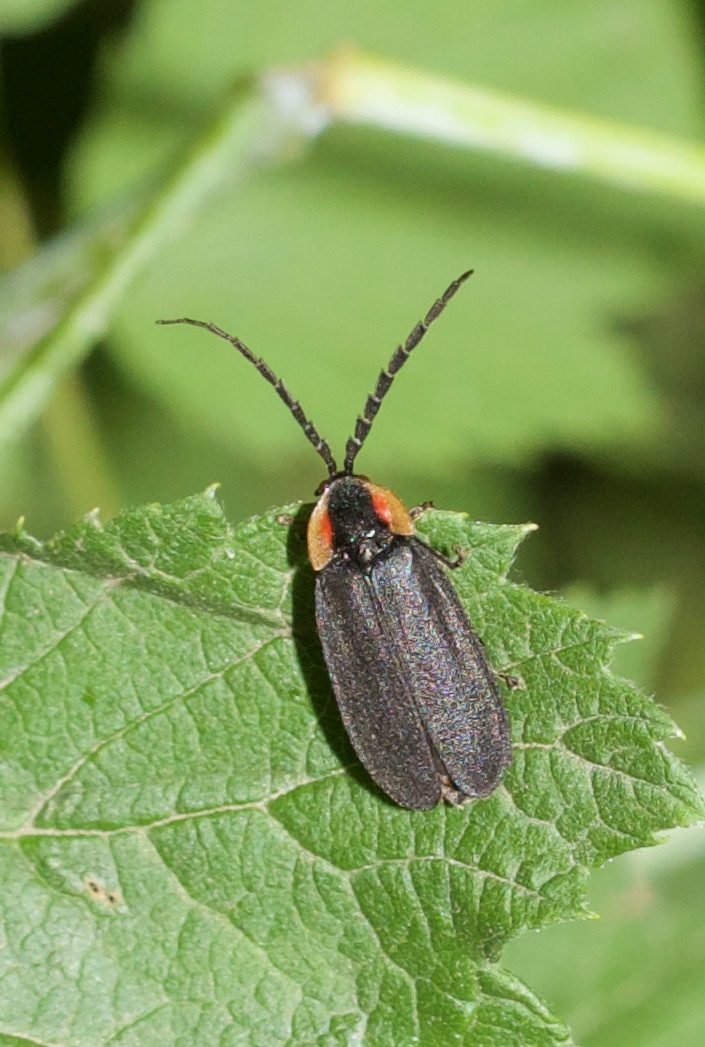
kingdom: Animalia
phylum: Arthropoda
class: Insecta
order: Coleoptera
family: Lampyridae
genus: Lucidota
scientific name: Lucidota atra
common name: Black firefly
